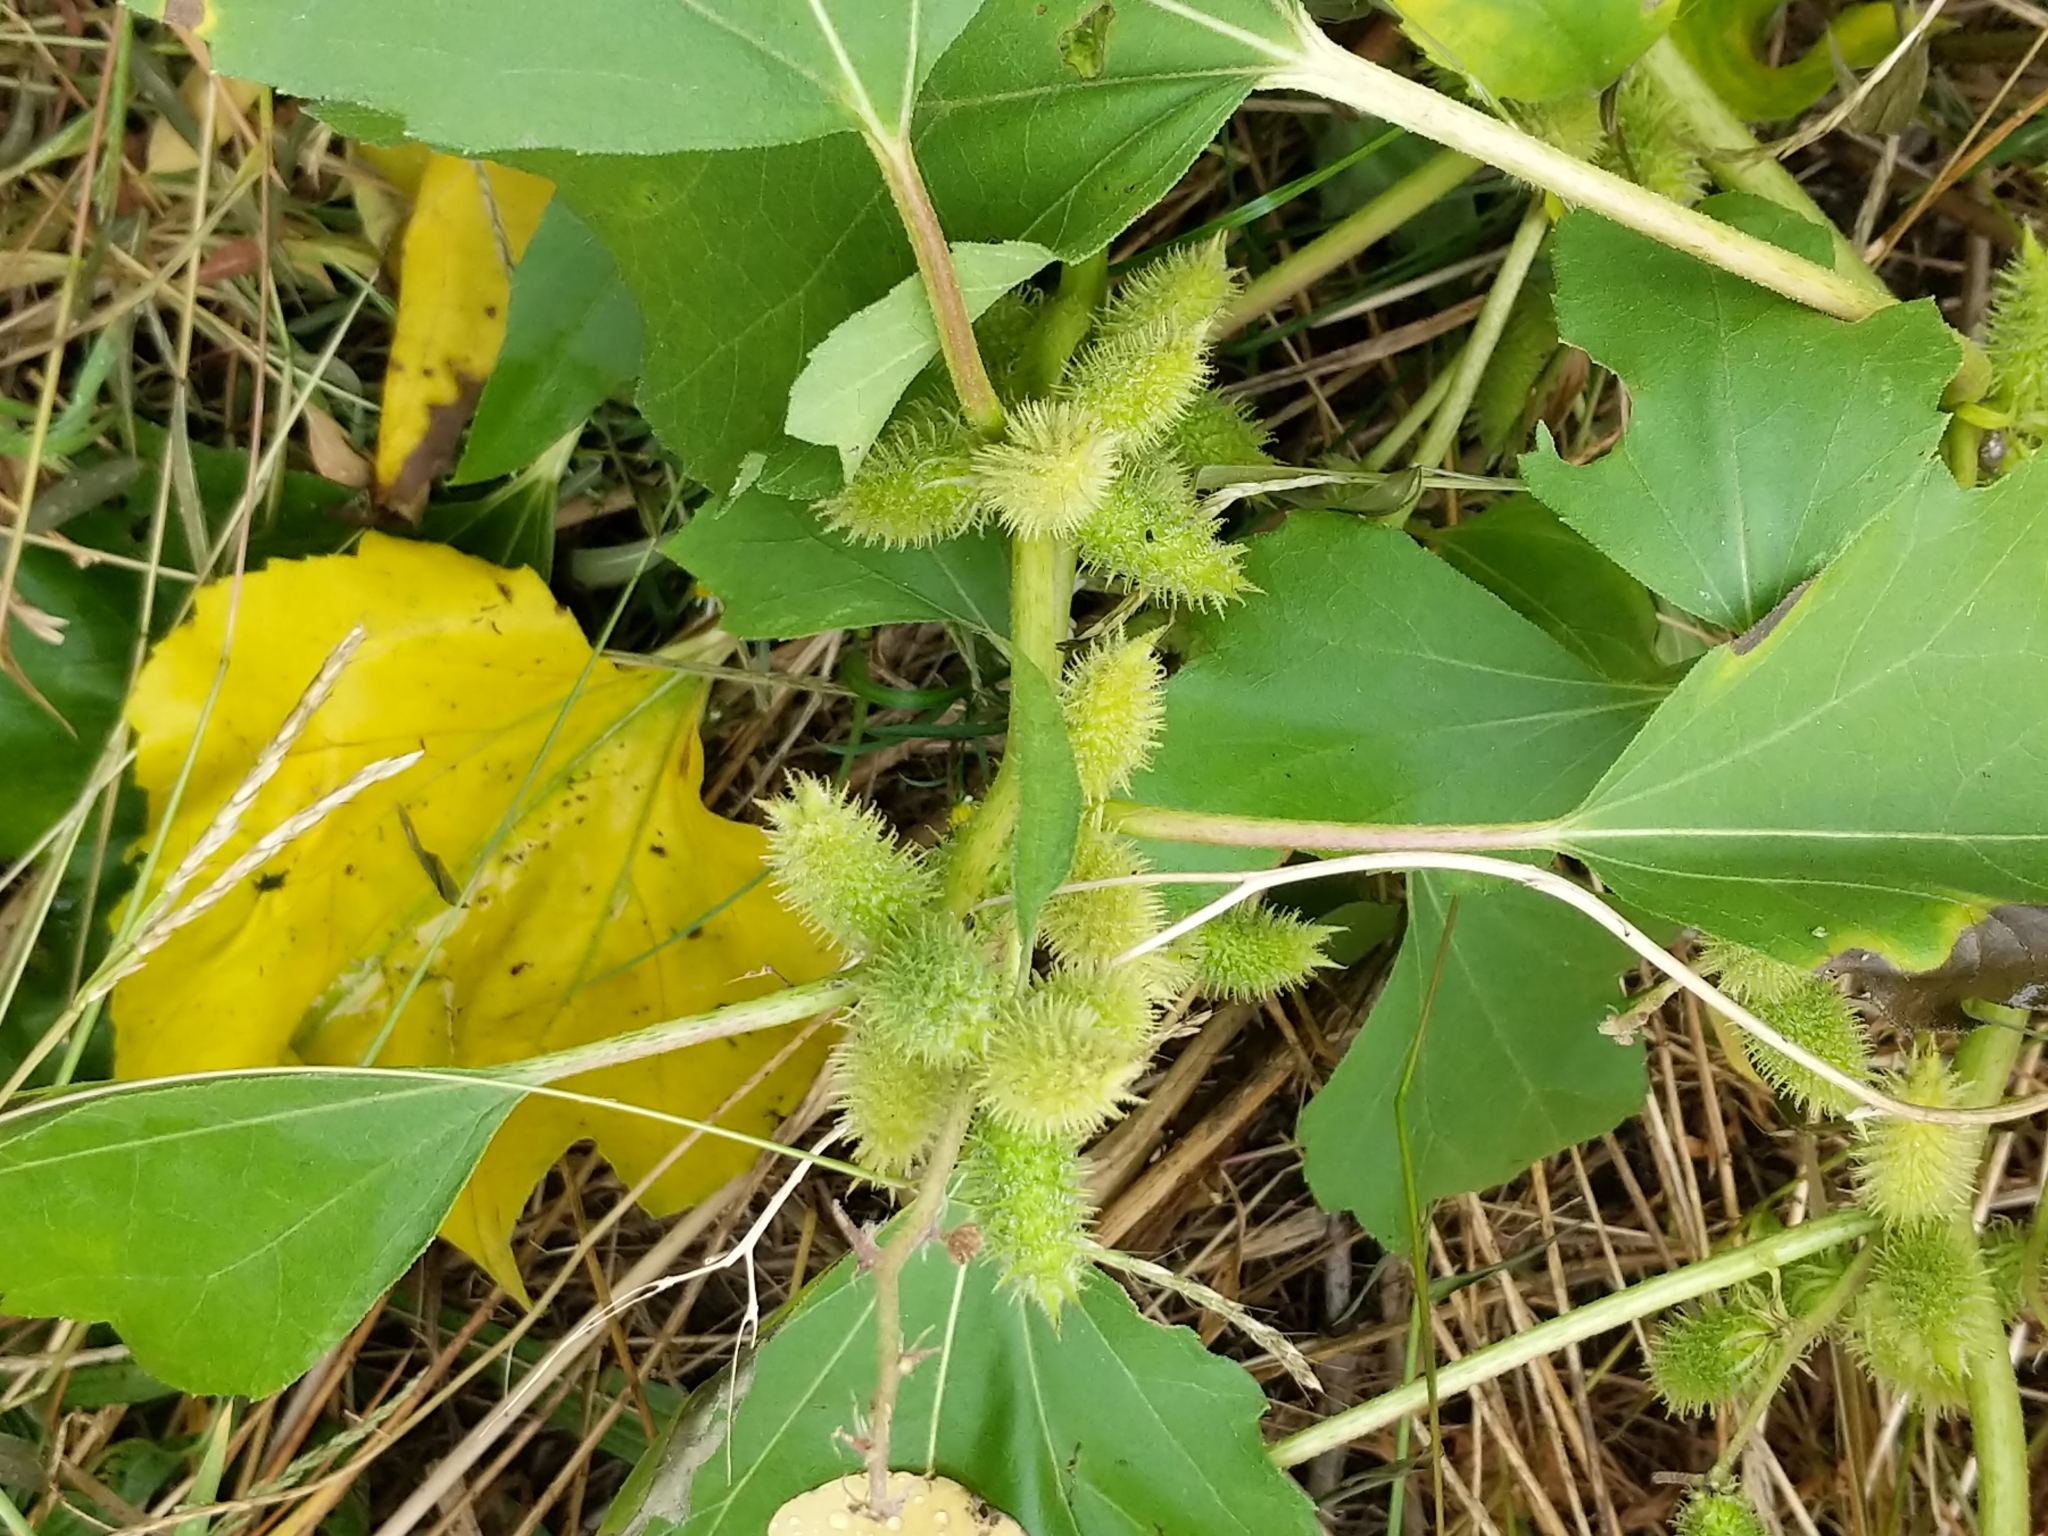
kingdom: Plantae
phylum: Tracheophyta
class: Magnoliopsida
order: Asterales
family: Asteraceae
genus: Xanthium
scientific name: Xanthium strumarium
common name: Rough cocklebur
